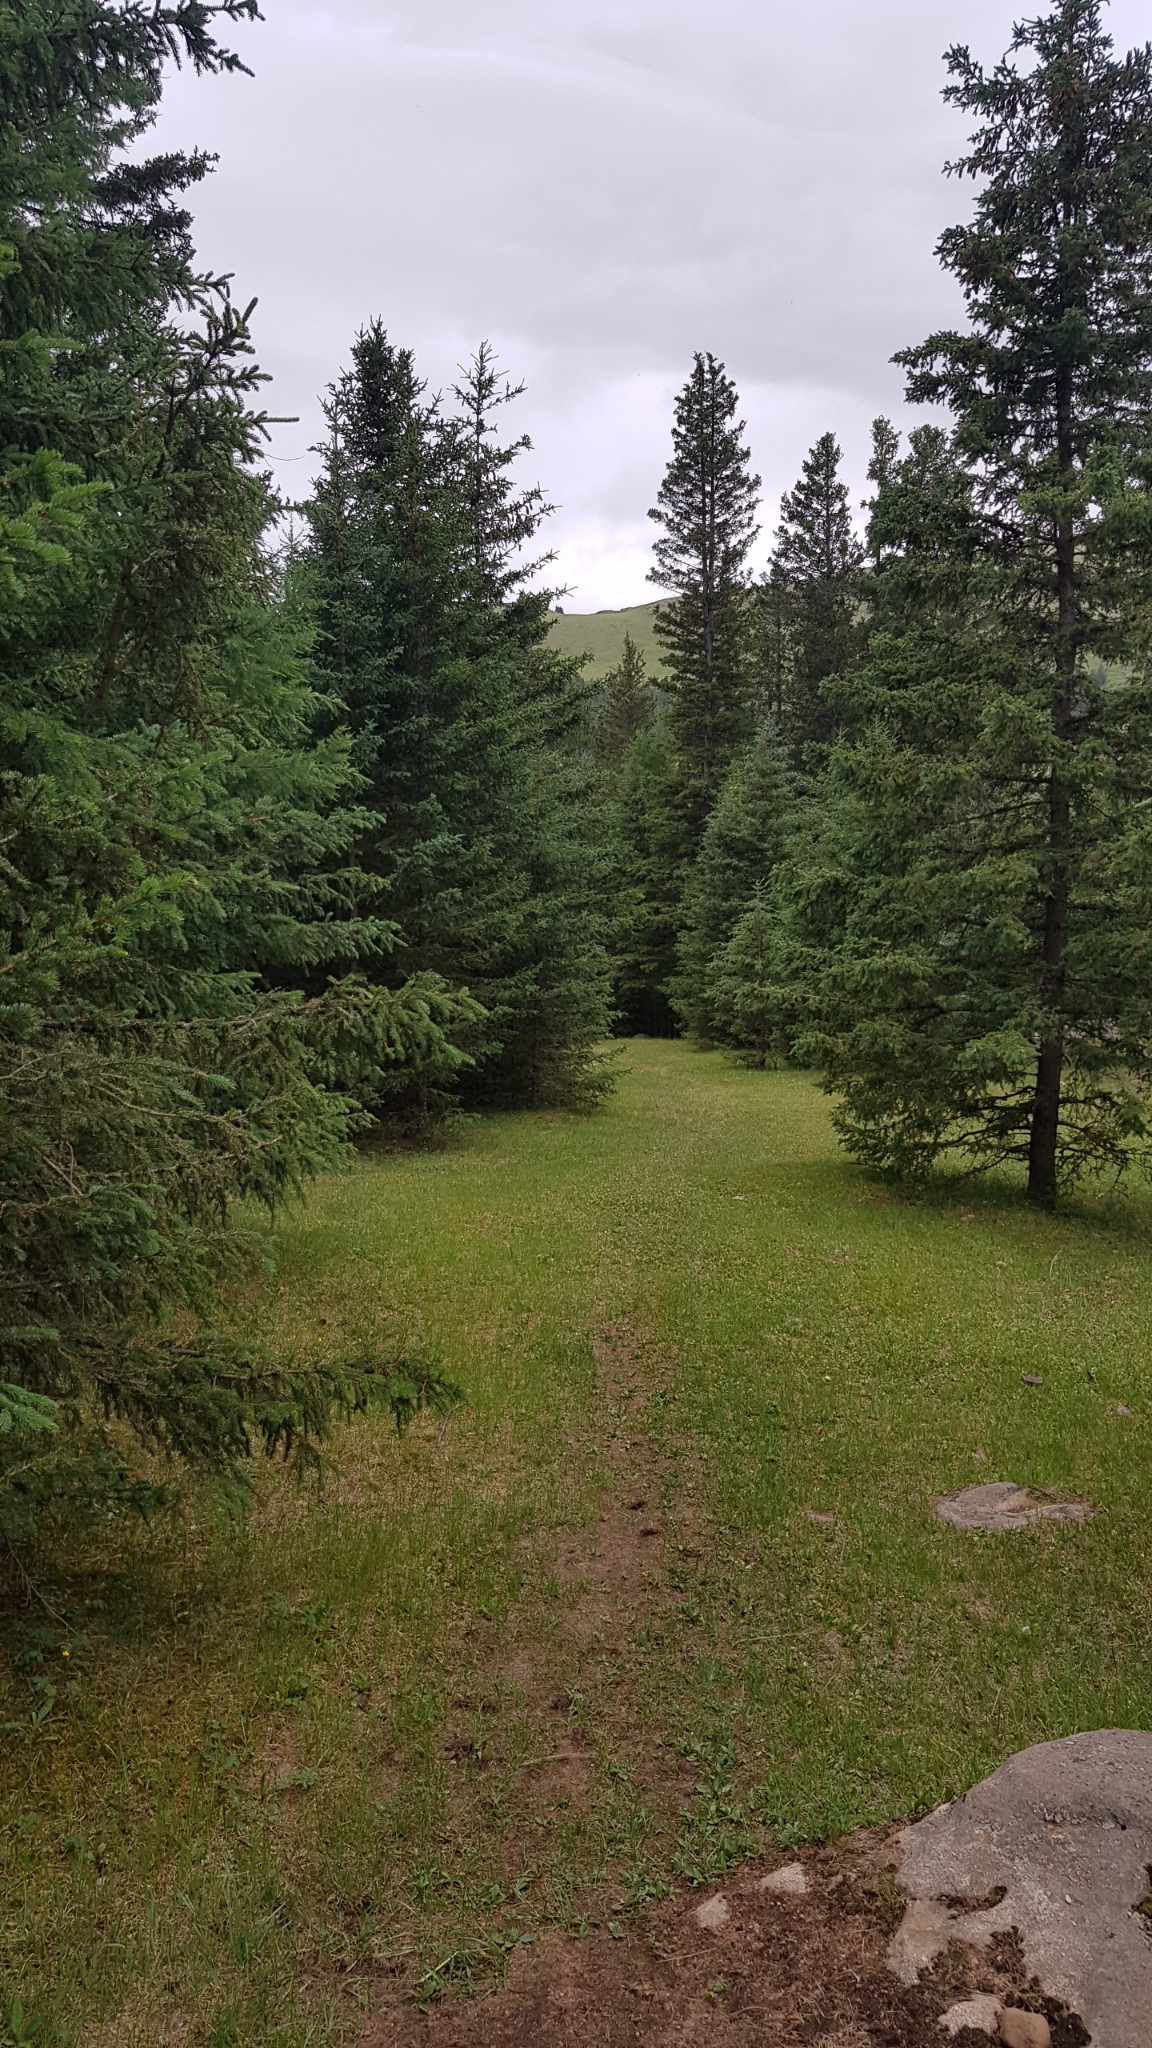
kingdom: Plantae
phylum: Tracheophyta
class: Pinopsida
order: Pinales
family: Pinaceae
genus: Picea
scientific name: Picea obovata
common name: Siberian spruce
